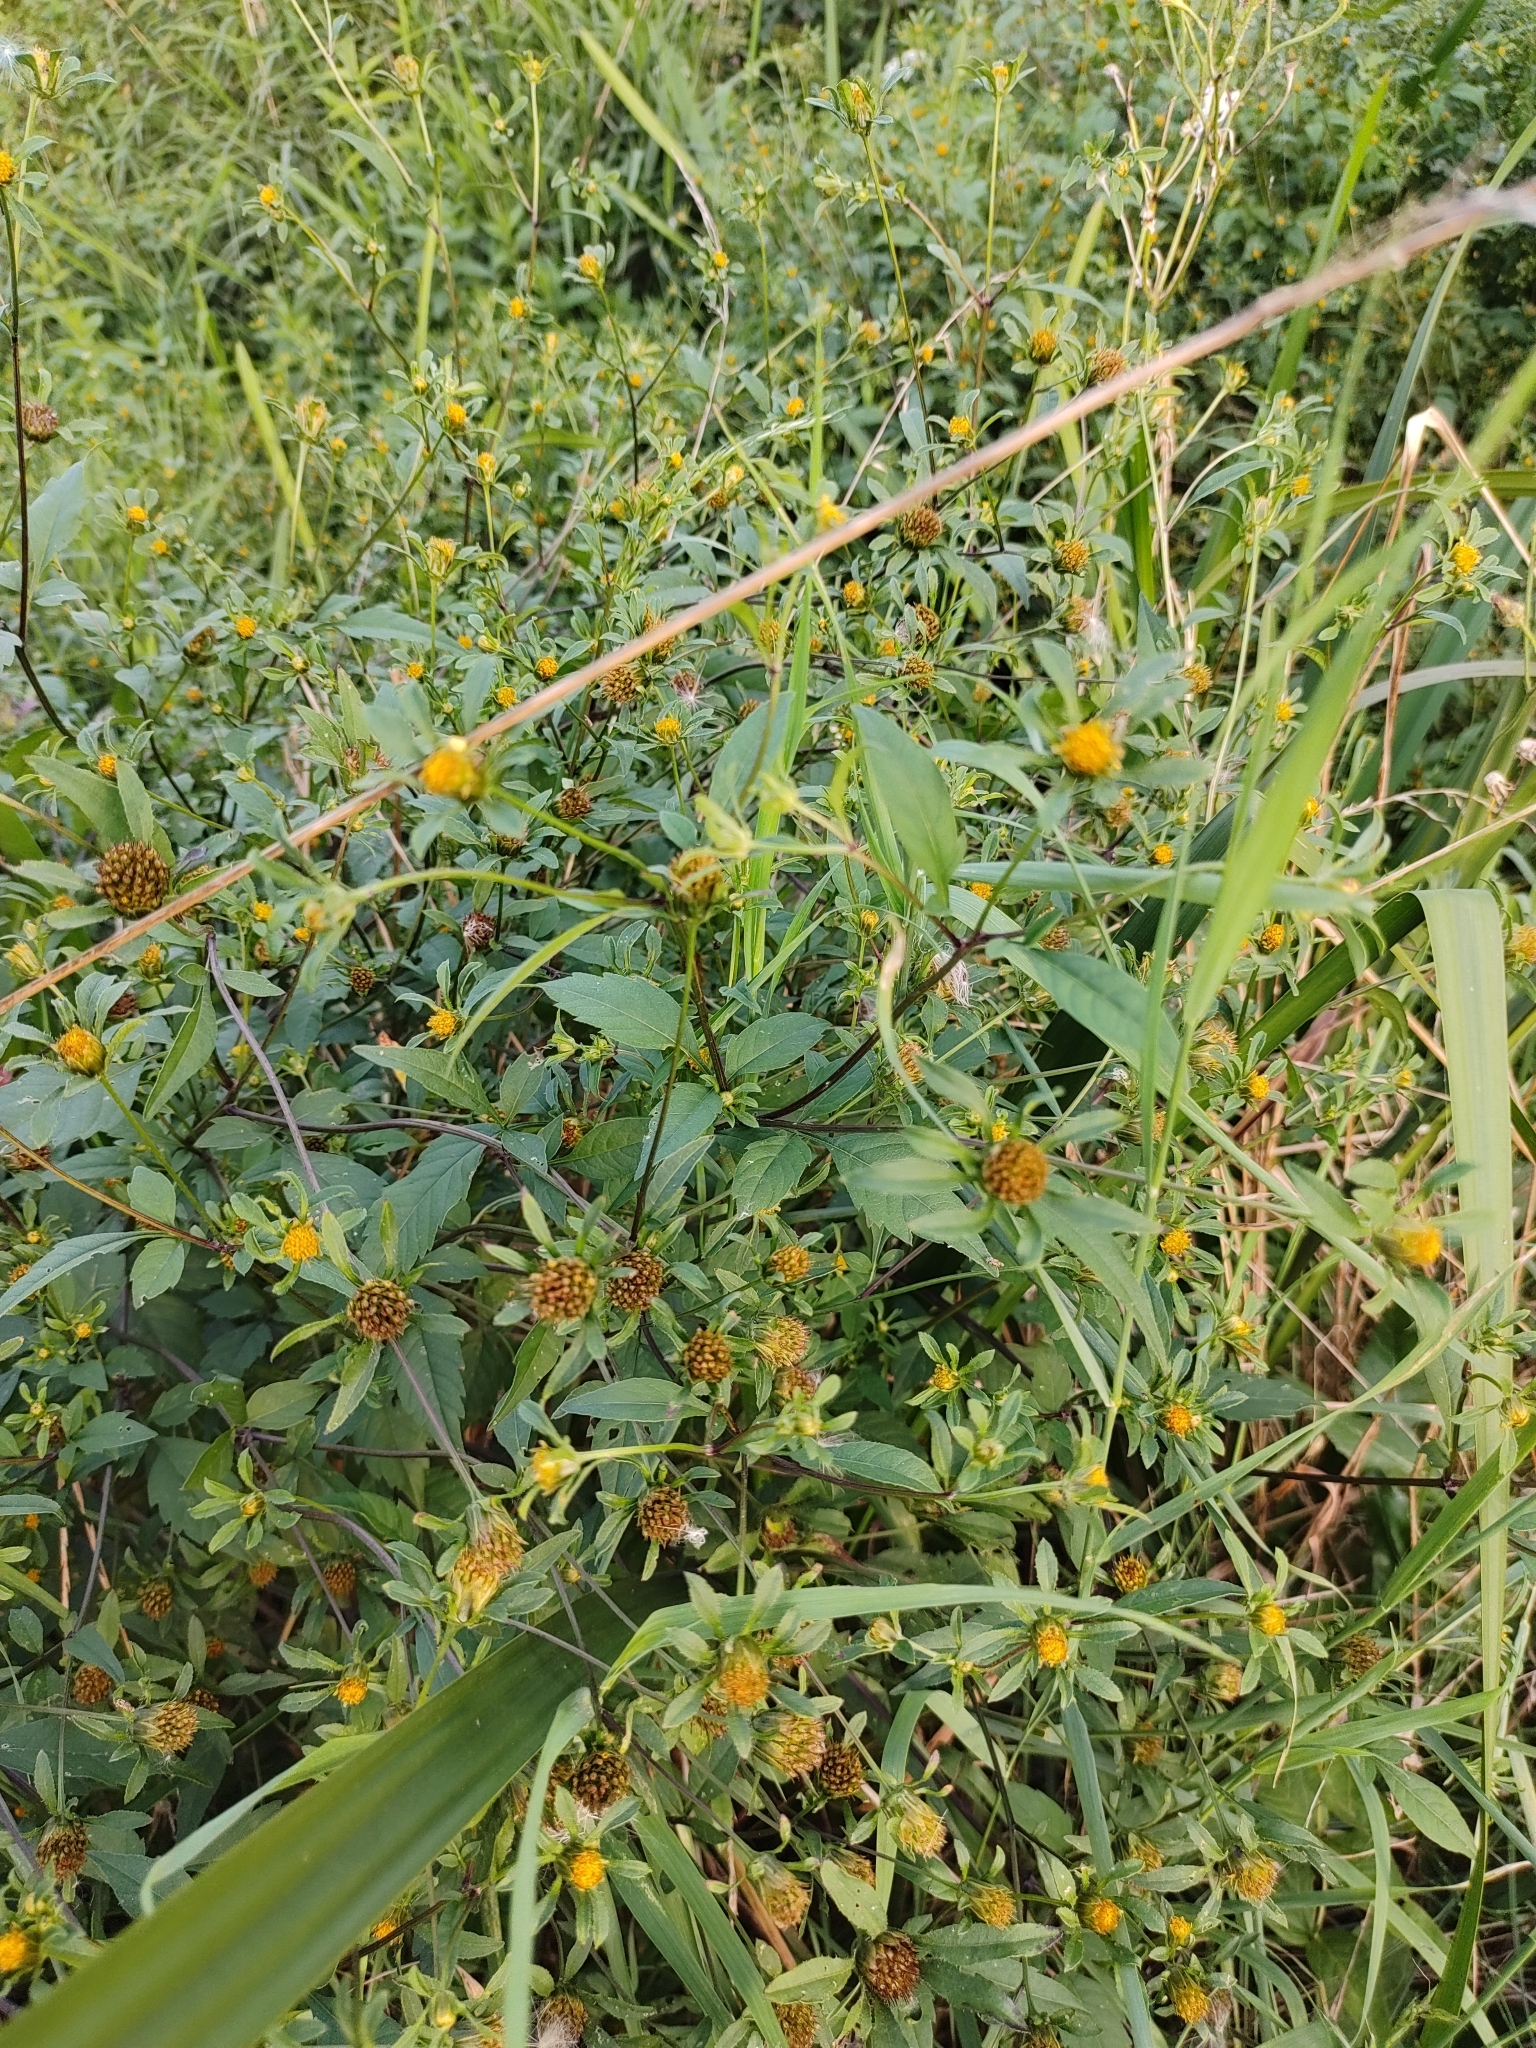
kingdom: Plantae
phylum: Tracheophyta
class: Magnoliopsida
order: Asterales
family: Asteraceae
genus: Bidens
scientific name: Bidens frondosa
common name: Beggarticks
